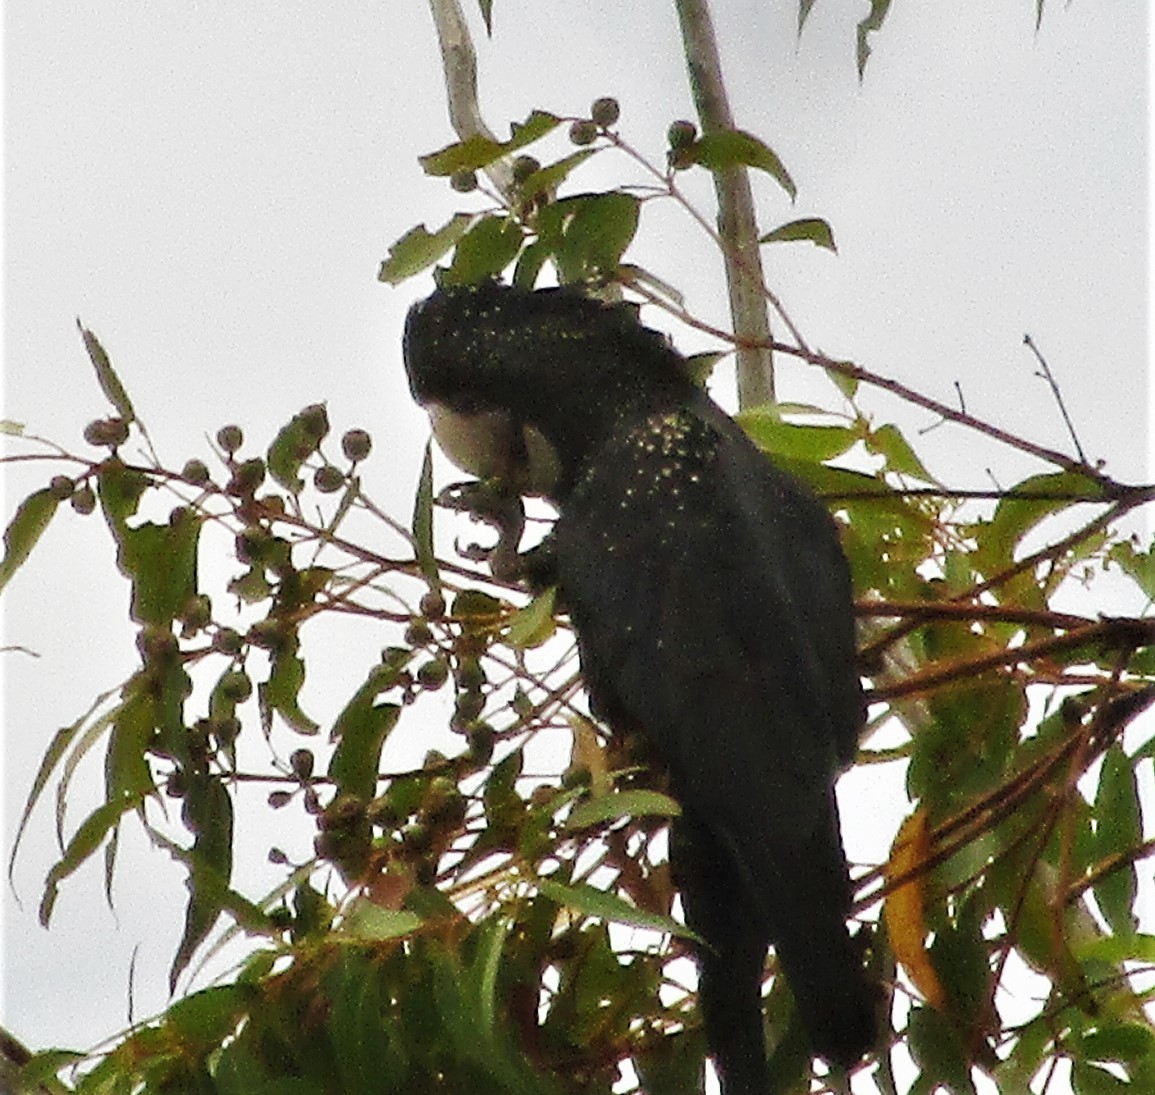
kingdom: Animalia
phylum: Chordata
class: Aves
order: Psittaciformes
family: Psittacidae
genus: Calyptorhynchus
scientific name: Calyptorhynchus banksii
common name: Red-tailed black cockatoo
